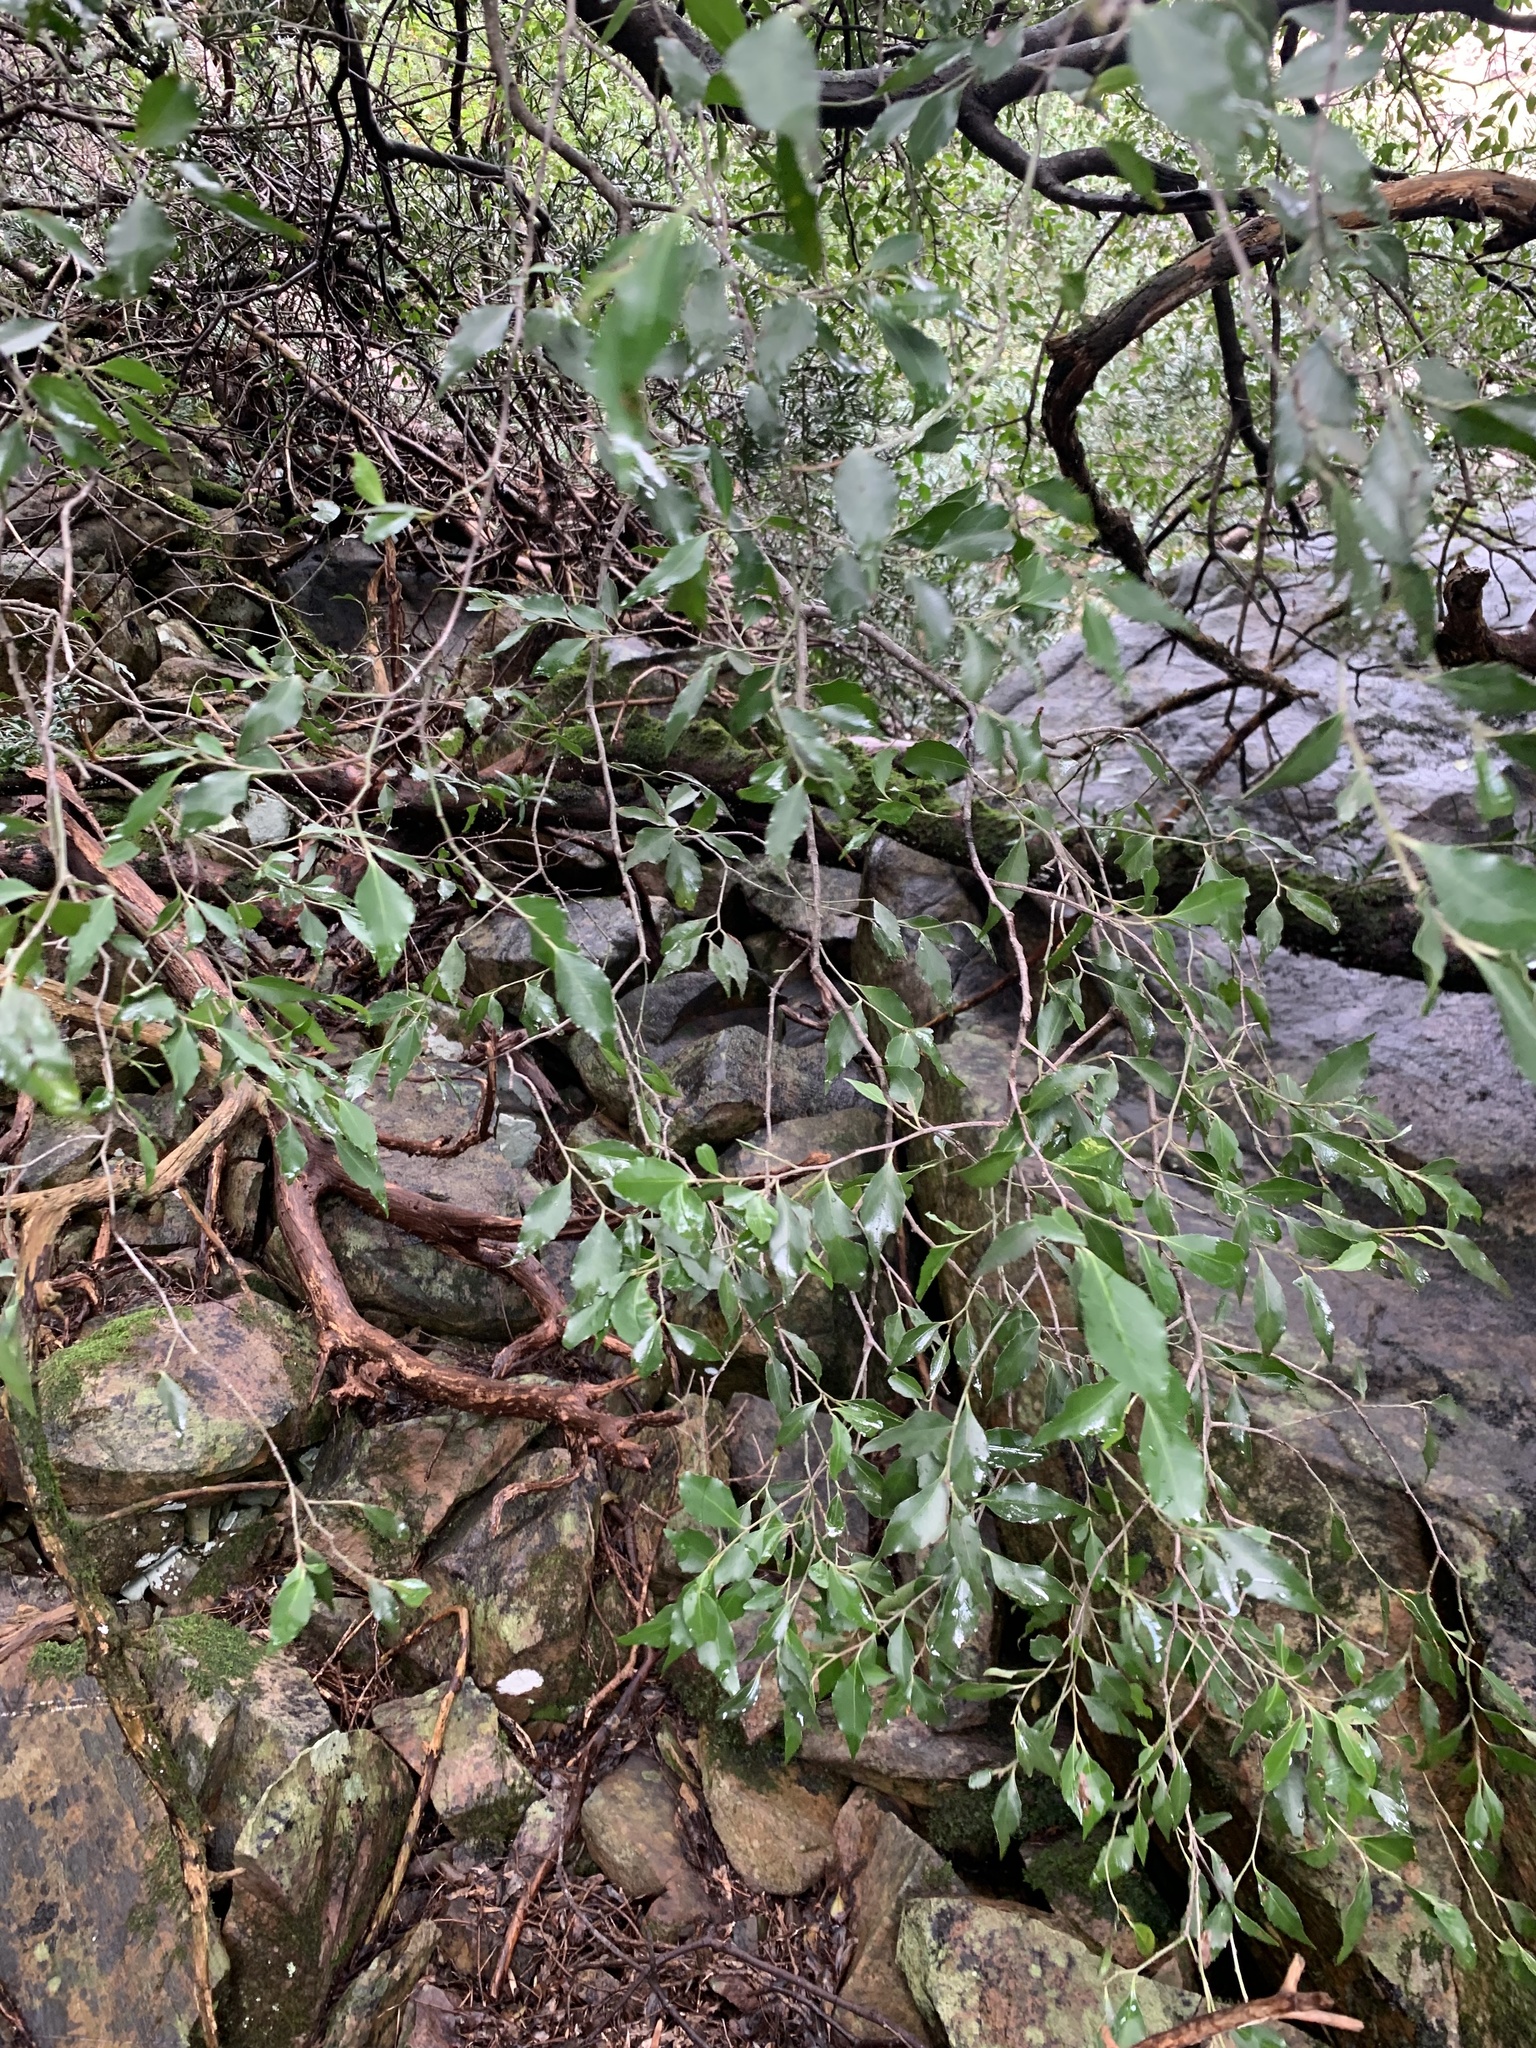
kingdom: Plantae
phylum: Tracheophyta
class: Magnoliopsida
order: Celastrales
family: Celastraceae
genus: Gymnosporia
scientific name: Gymnosporia acuminata
